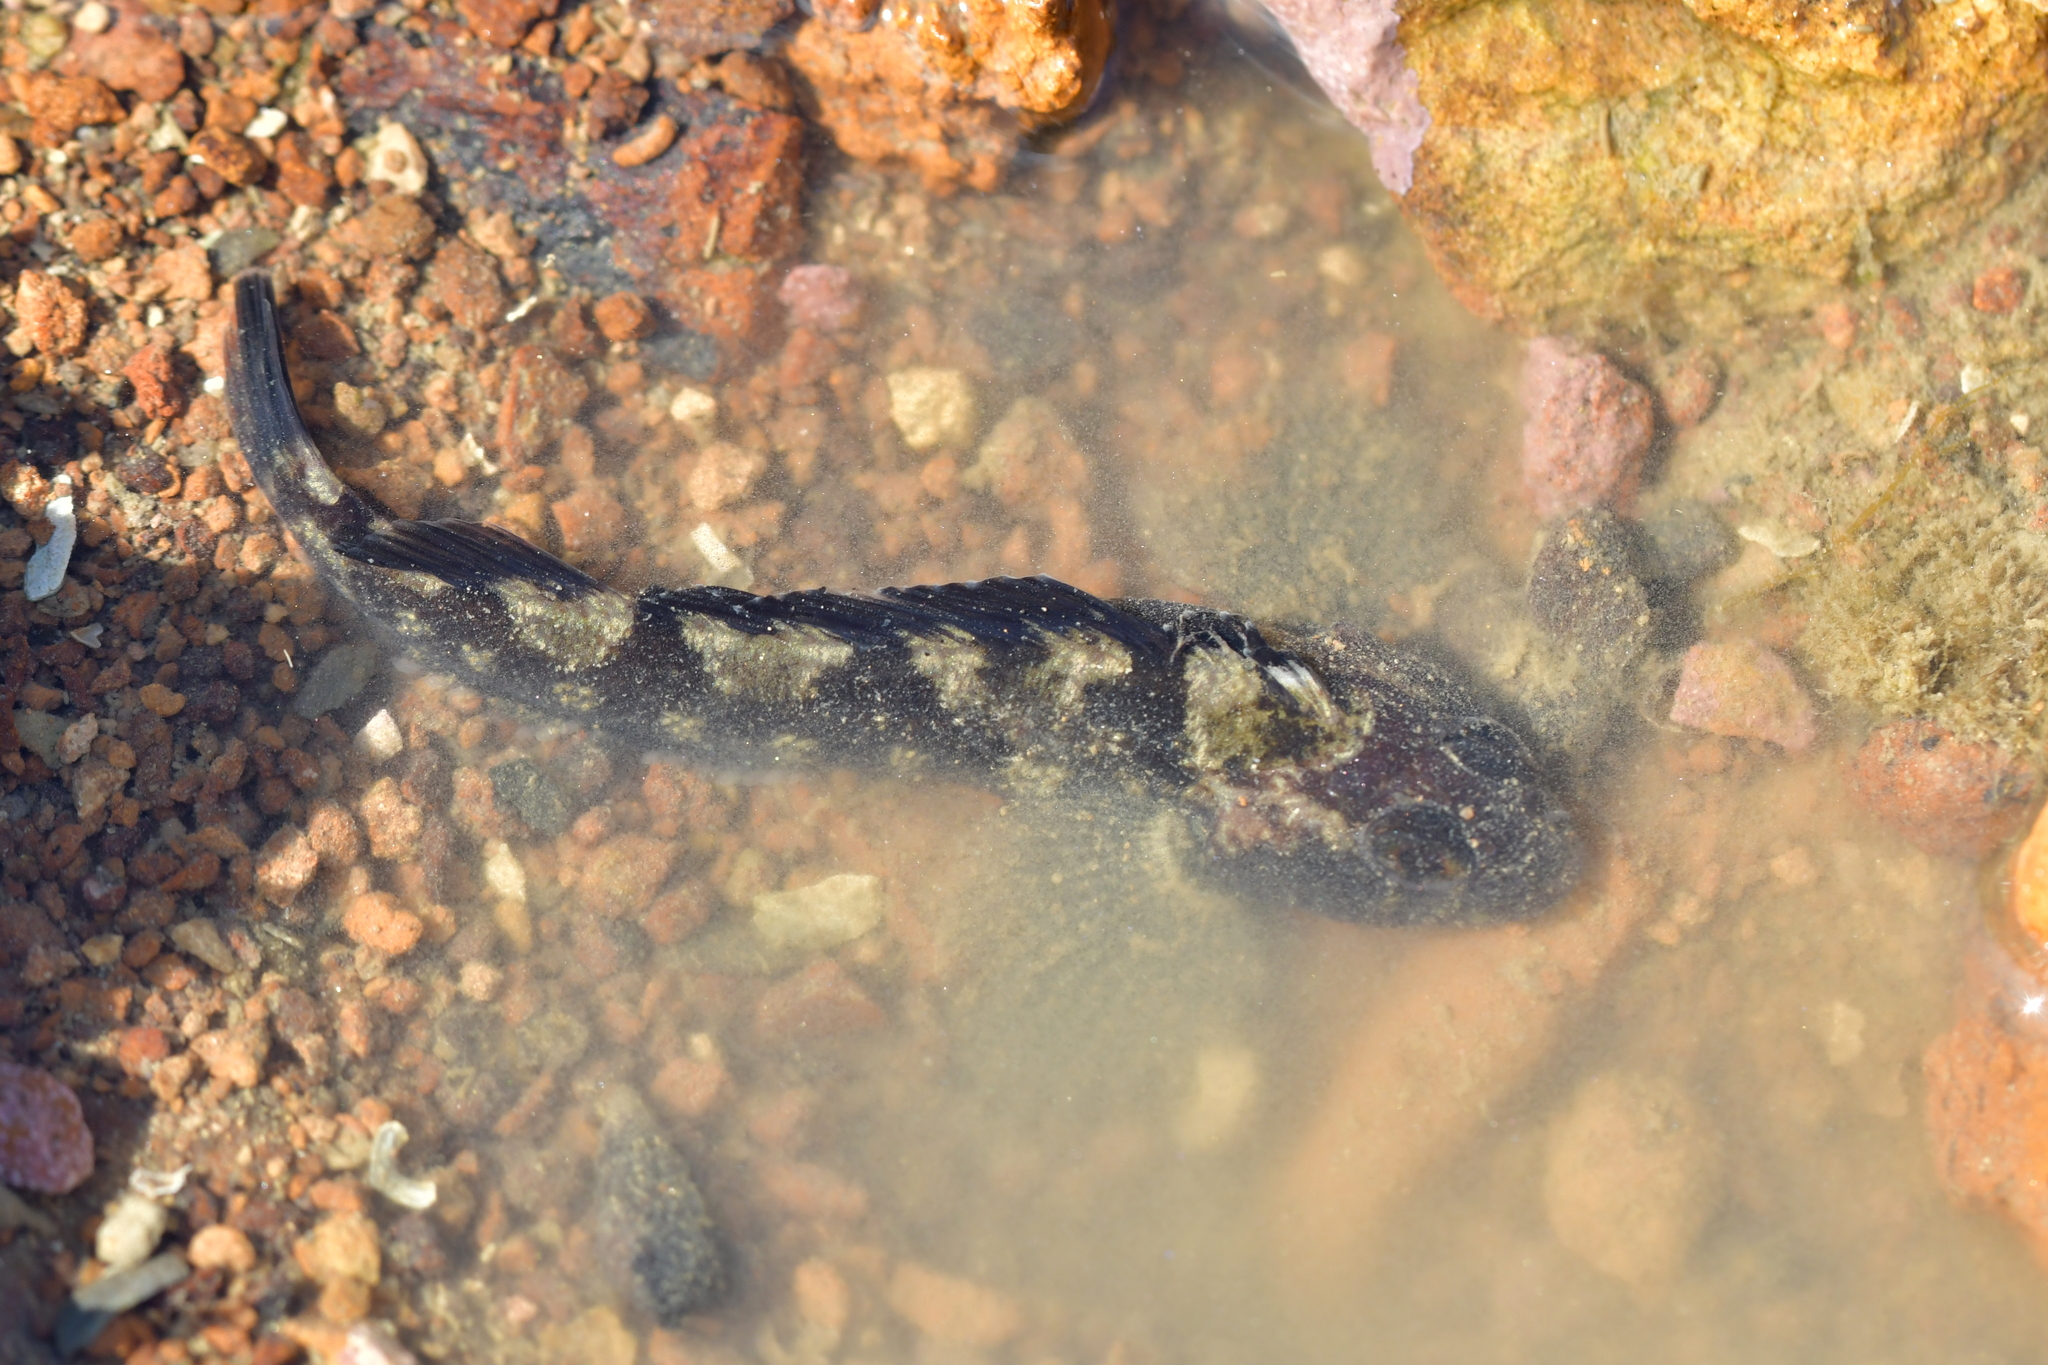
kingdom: Animalia
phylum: Chordata
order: Perciformes
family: Tripterygiidae
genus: Forsterygion
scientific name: Forsterygion capito
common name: Spotted robust triplefin
